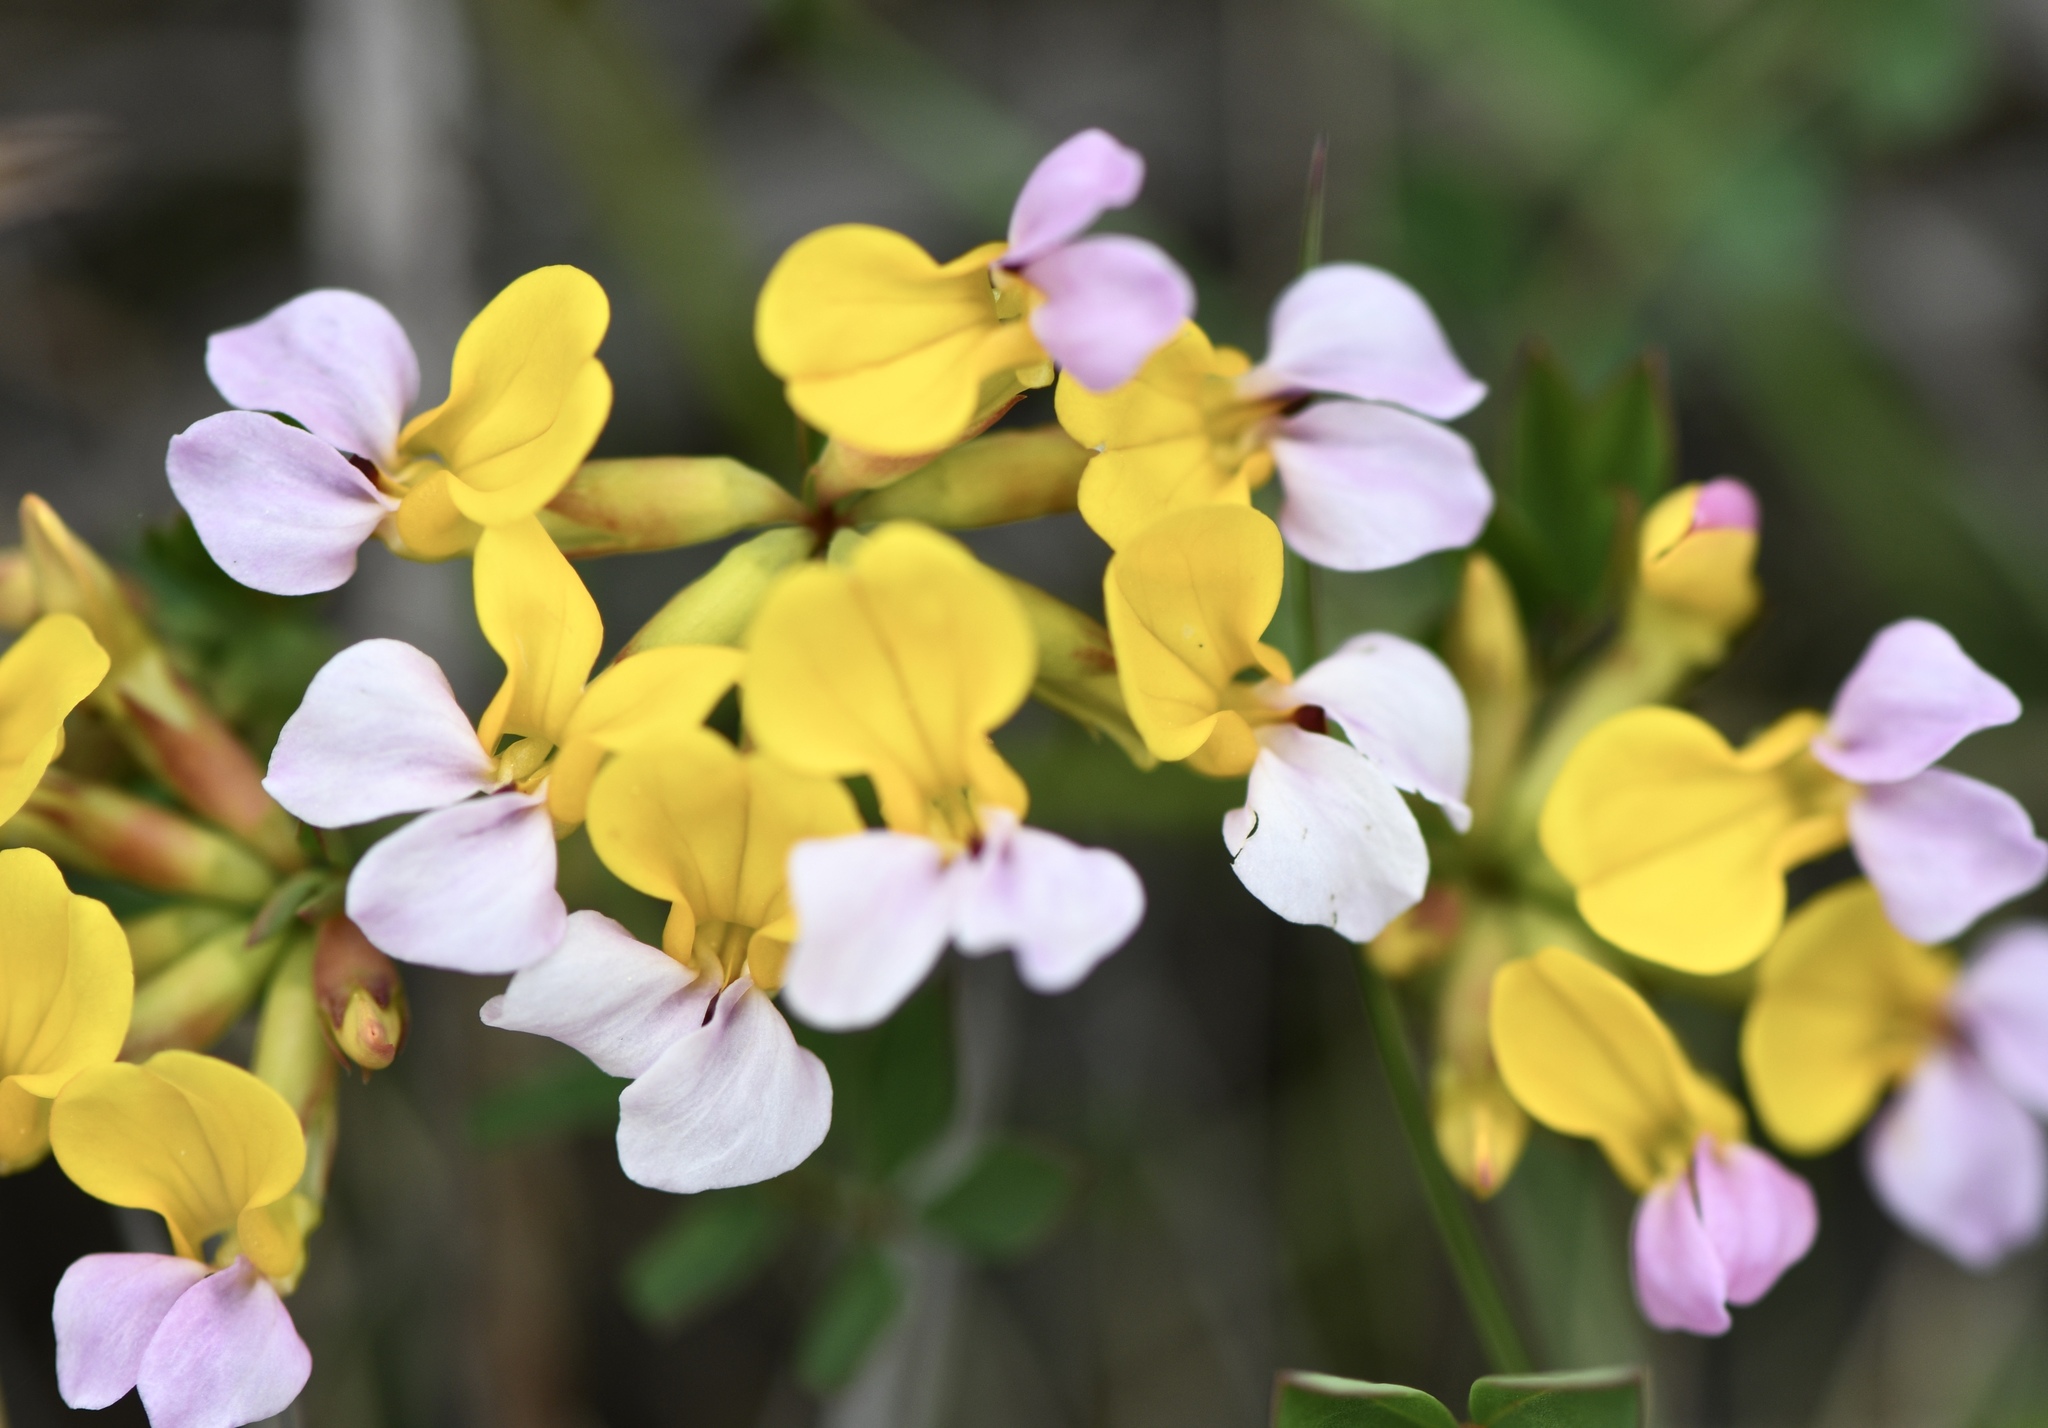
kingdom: Plantae
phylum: Tracheophyta
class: Magnoliopsida
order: Fabales
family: Fabaceae
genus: Hosackia
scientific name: Hosackia gracilis
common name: Seaside bird's-foot lotus
